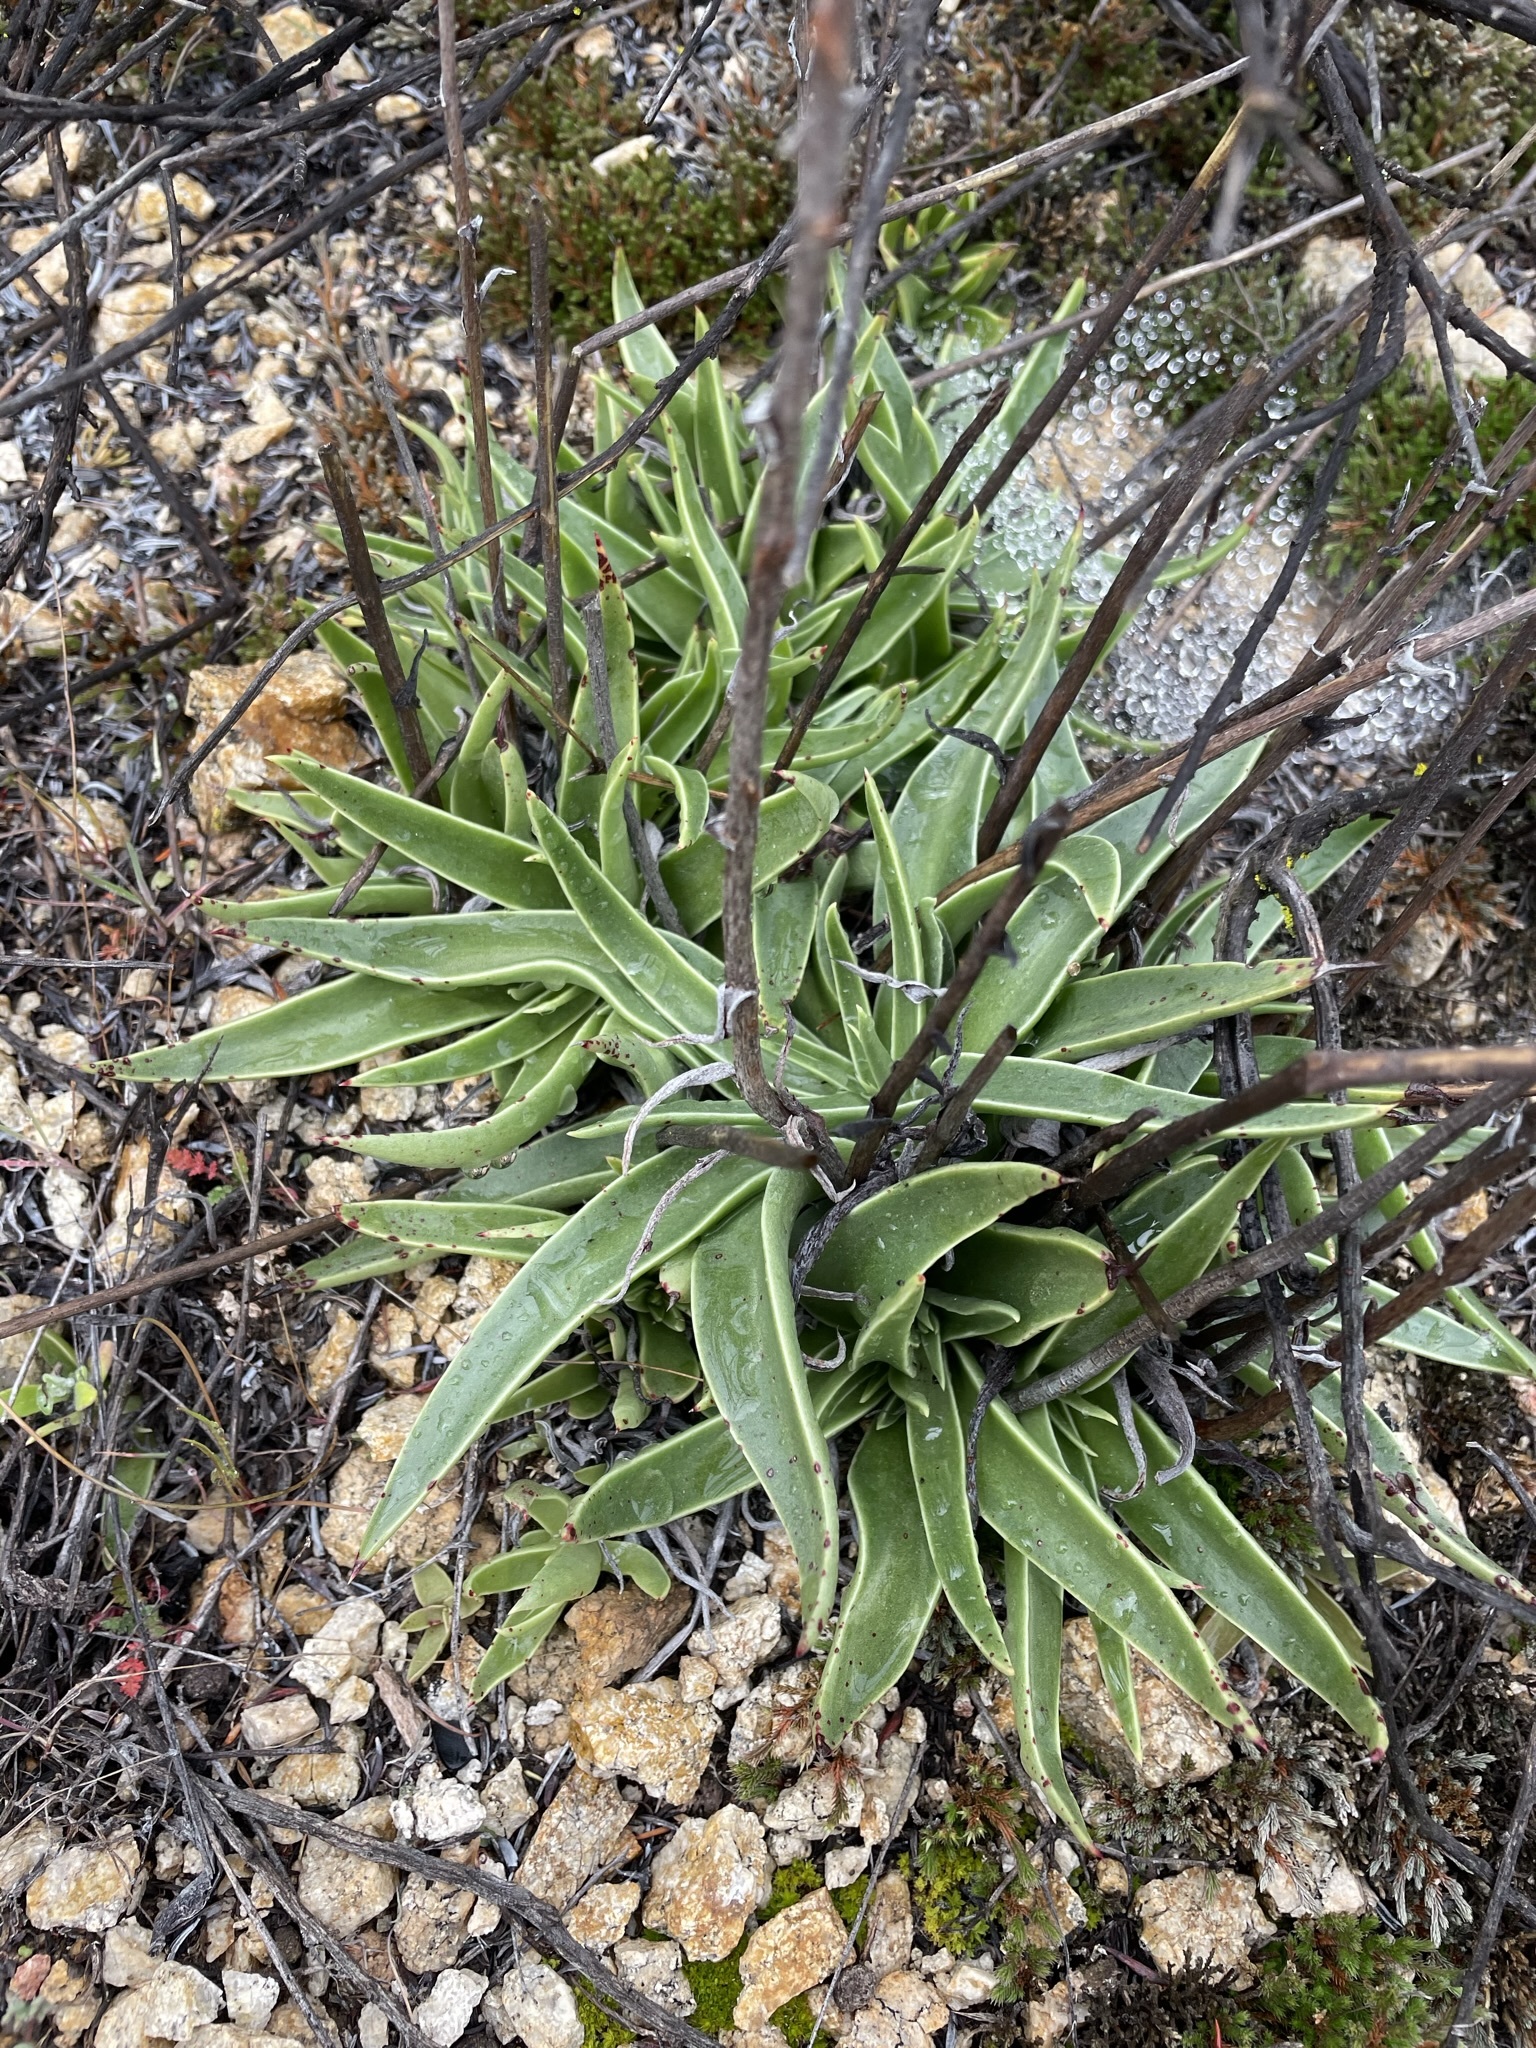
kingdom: Plantae
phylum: Tracheophyta
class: Magnoliopsida
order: Saxifragales
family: Crassulaceae
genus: Dudleya
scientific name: Dudleya lanceolata
